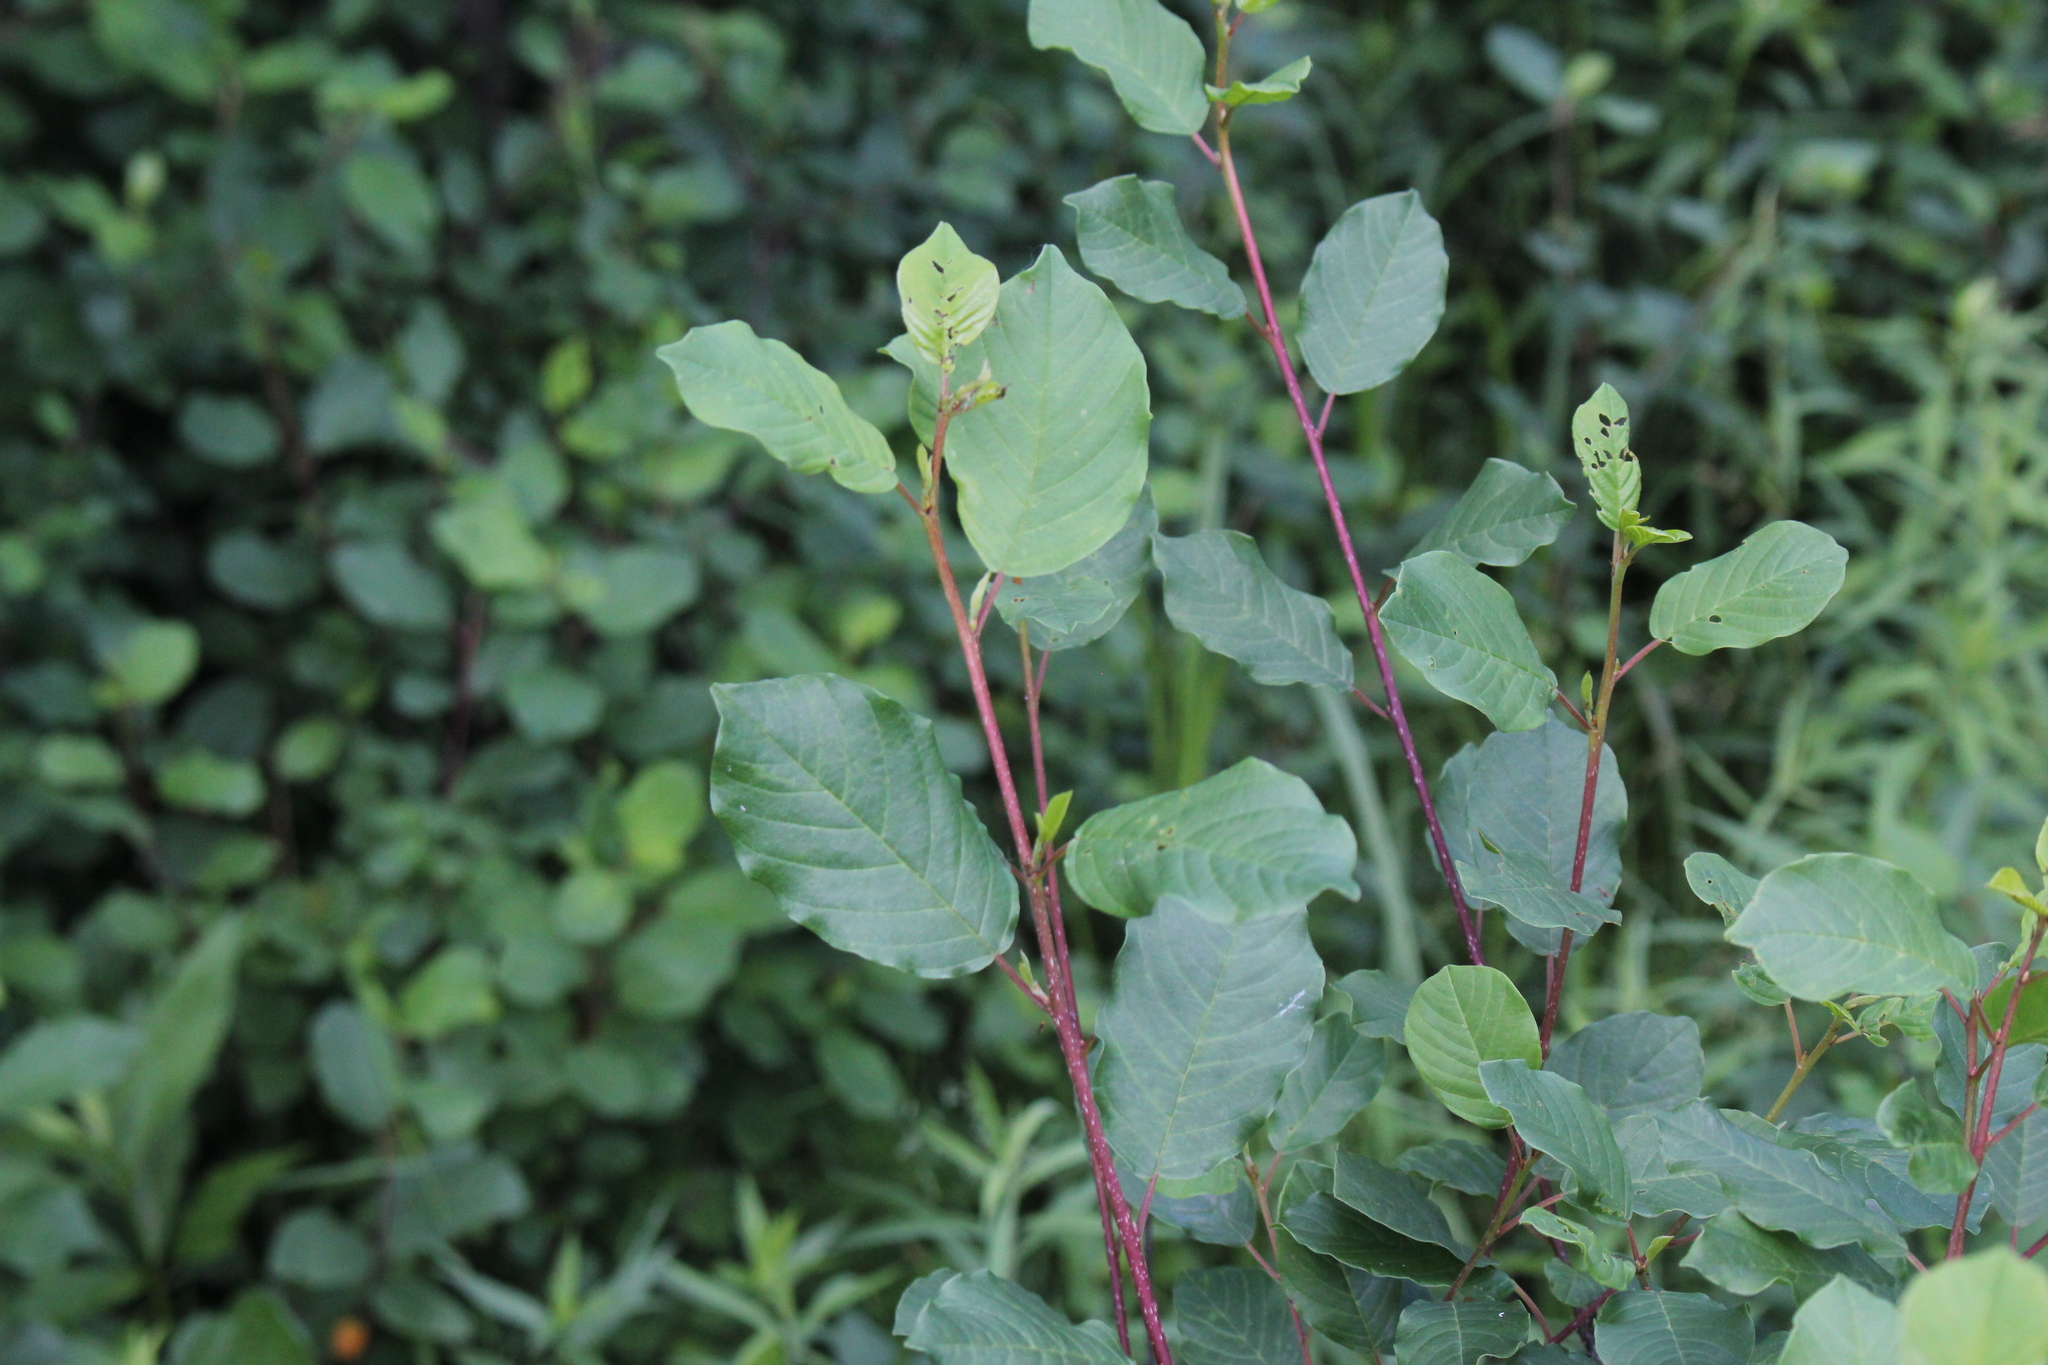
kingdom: Plantae
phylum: Tracheophyta
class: Magnoliopsida
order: Rosales
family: Rhamnaceae
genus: Frangula
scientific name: Frangula alnus
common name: Alder buckthorn
